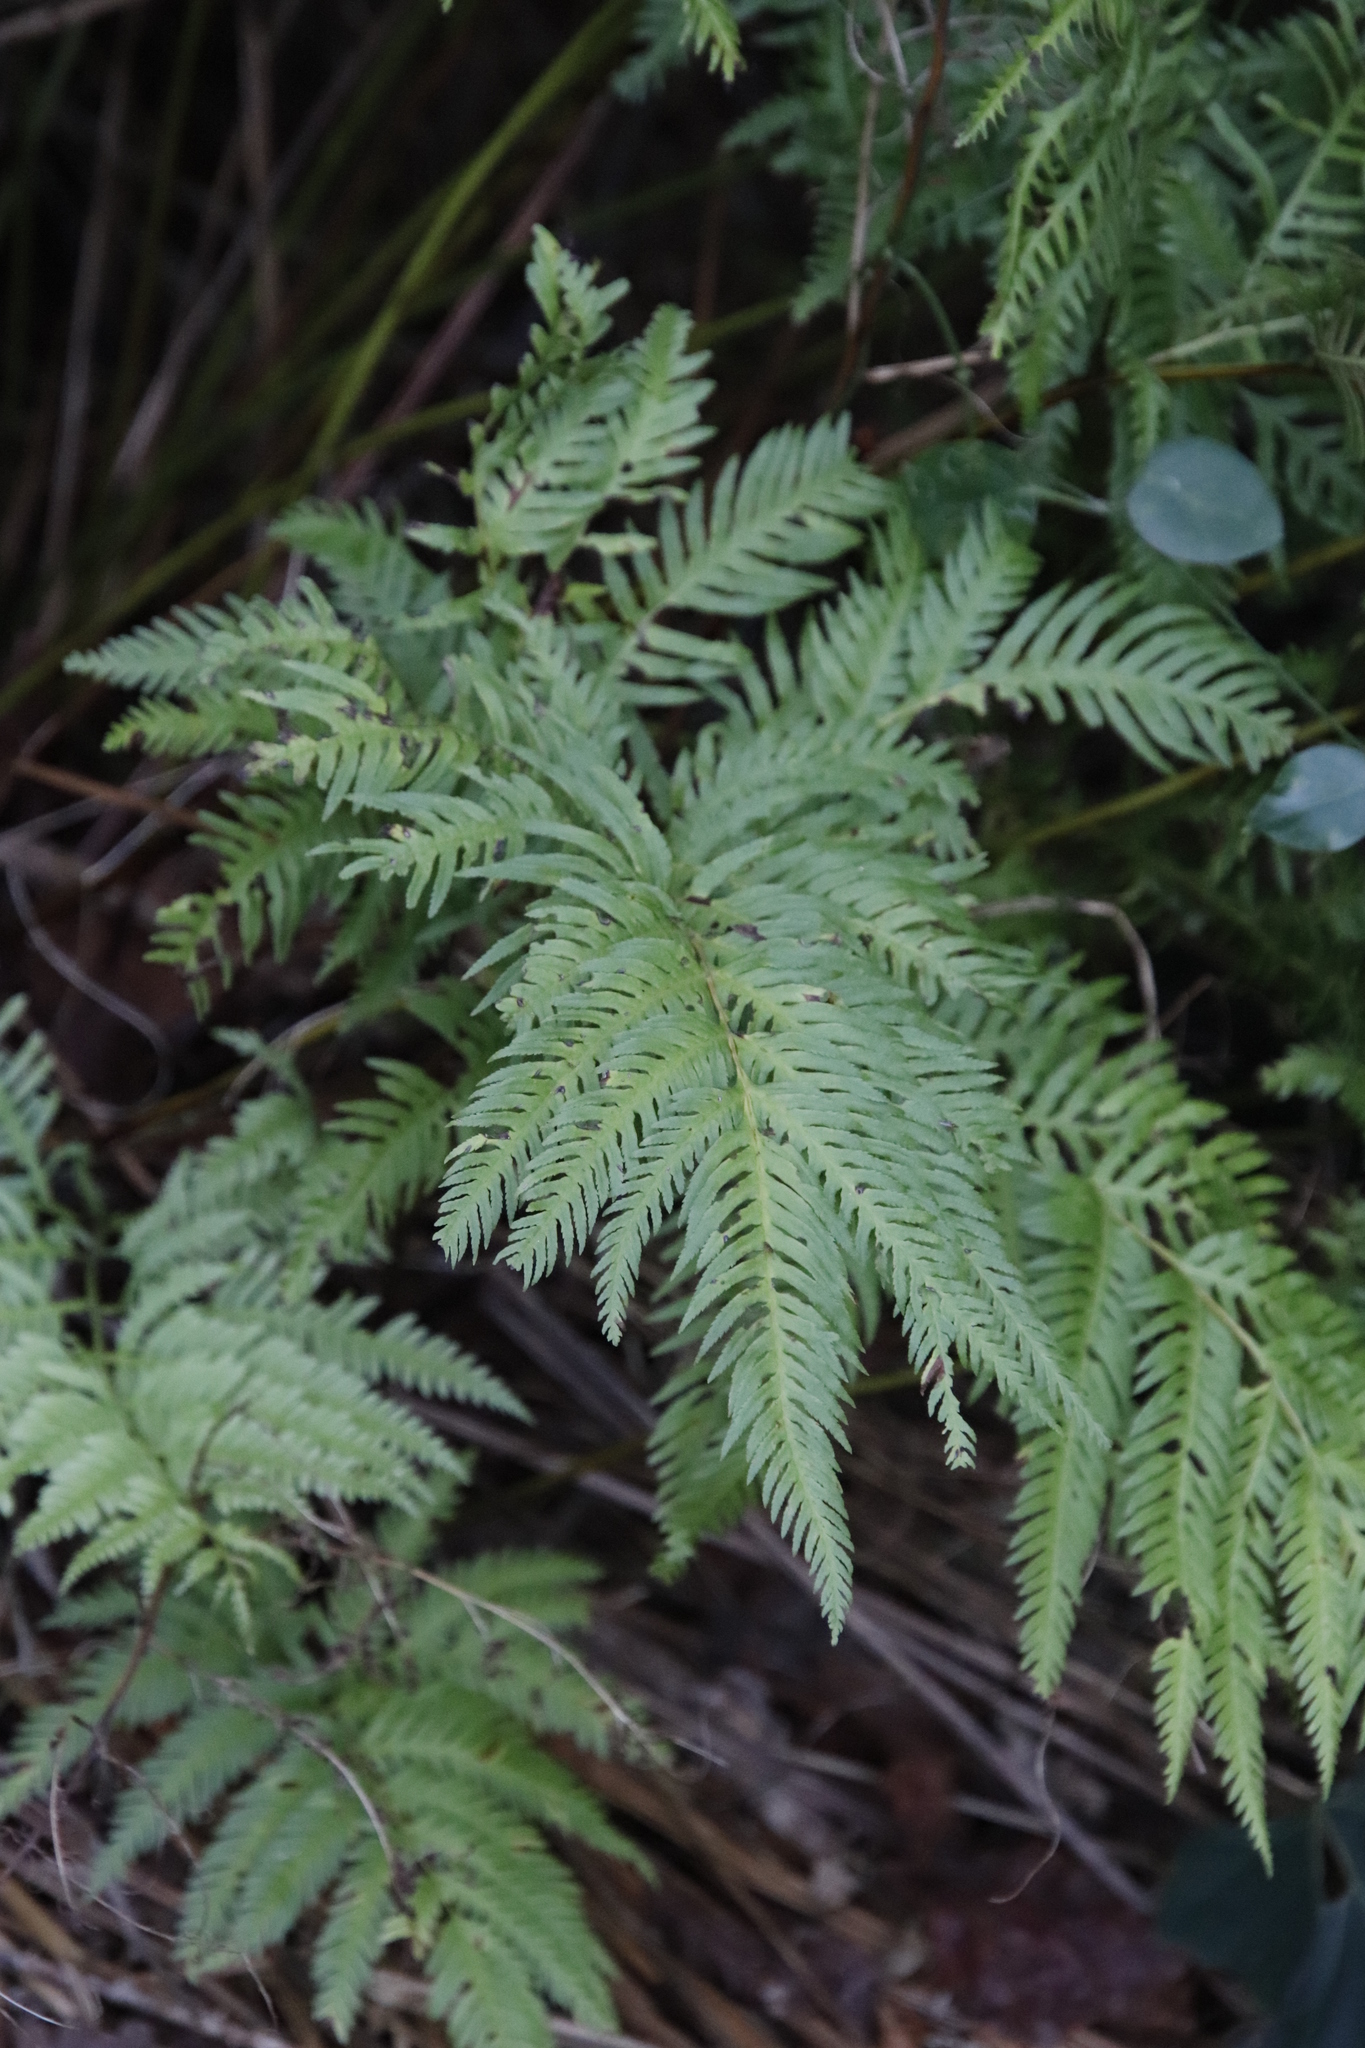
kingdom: Plantae
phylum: Tracheophyta
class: Polypodiopsida
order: Polypodiales
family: Pteridaceae
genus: Pteris
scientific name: Pteris dentata
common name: Toothed brake
